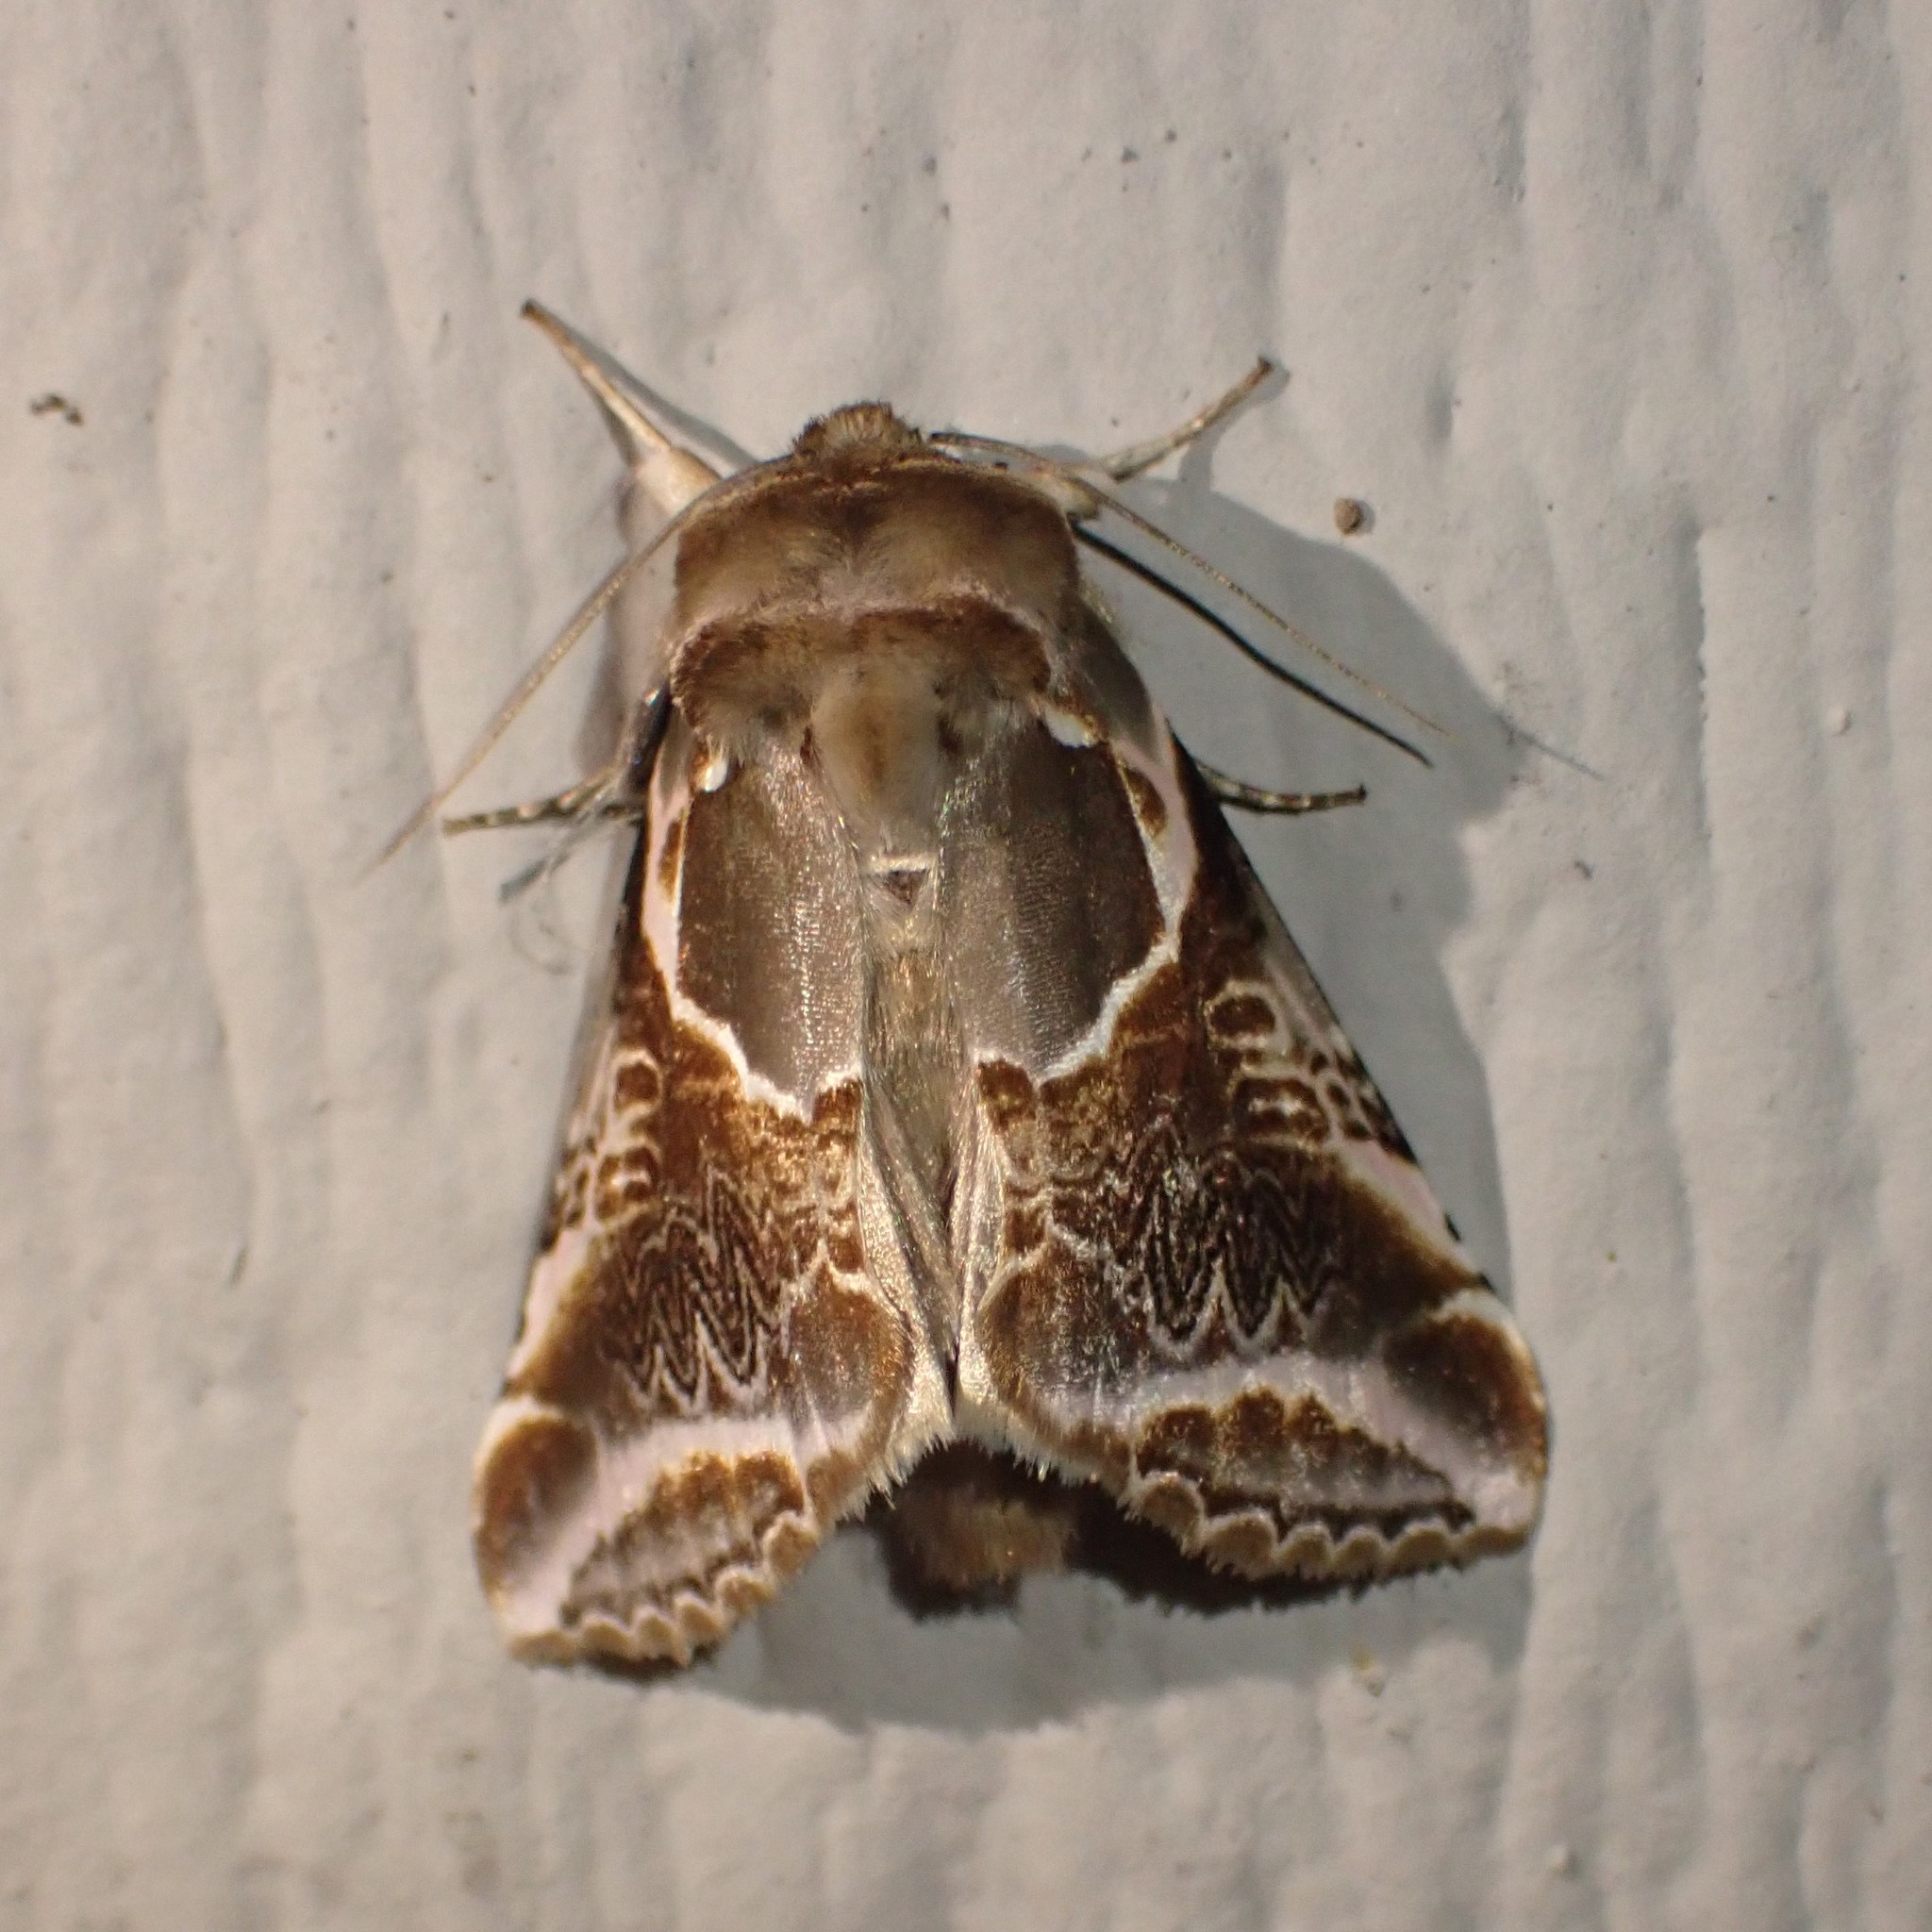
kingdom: Animalia
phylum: Arthropoda
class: Insecta
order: Lepidoptera
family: Drepanidae
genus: Habrosyne
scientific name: Habrosyne scripta
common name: Lettered habrosyne moth
